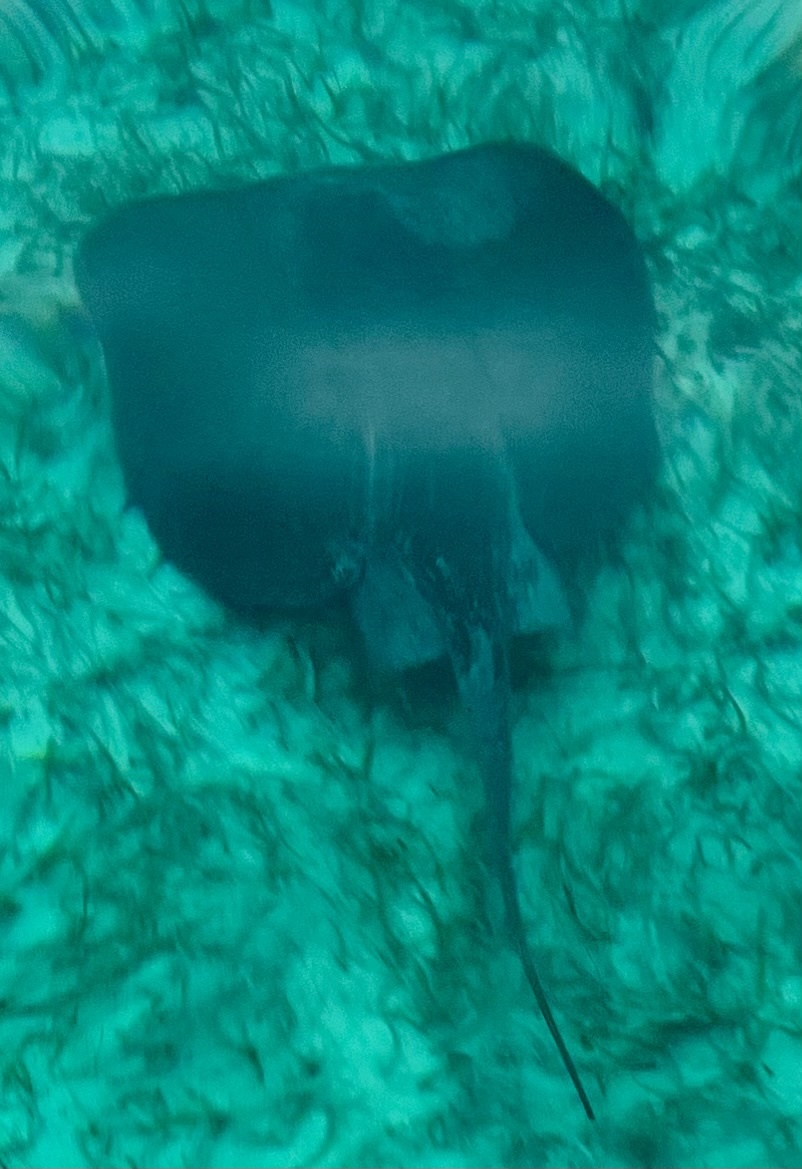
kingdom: Animalia
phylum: Chordata
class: Elasmobranchii
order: Myliobatiformes
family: Potamotrygonidae
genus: Styracura
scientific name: Styracura schmardae
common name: Atlantic chupare
